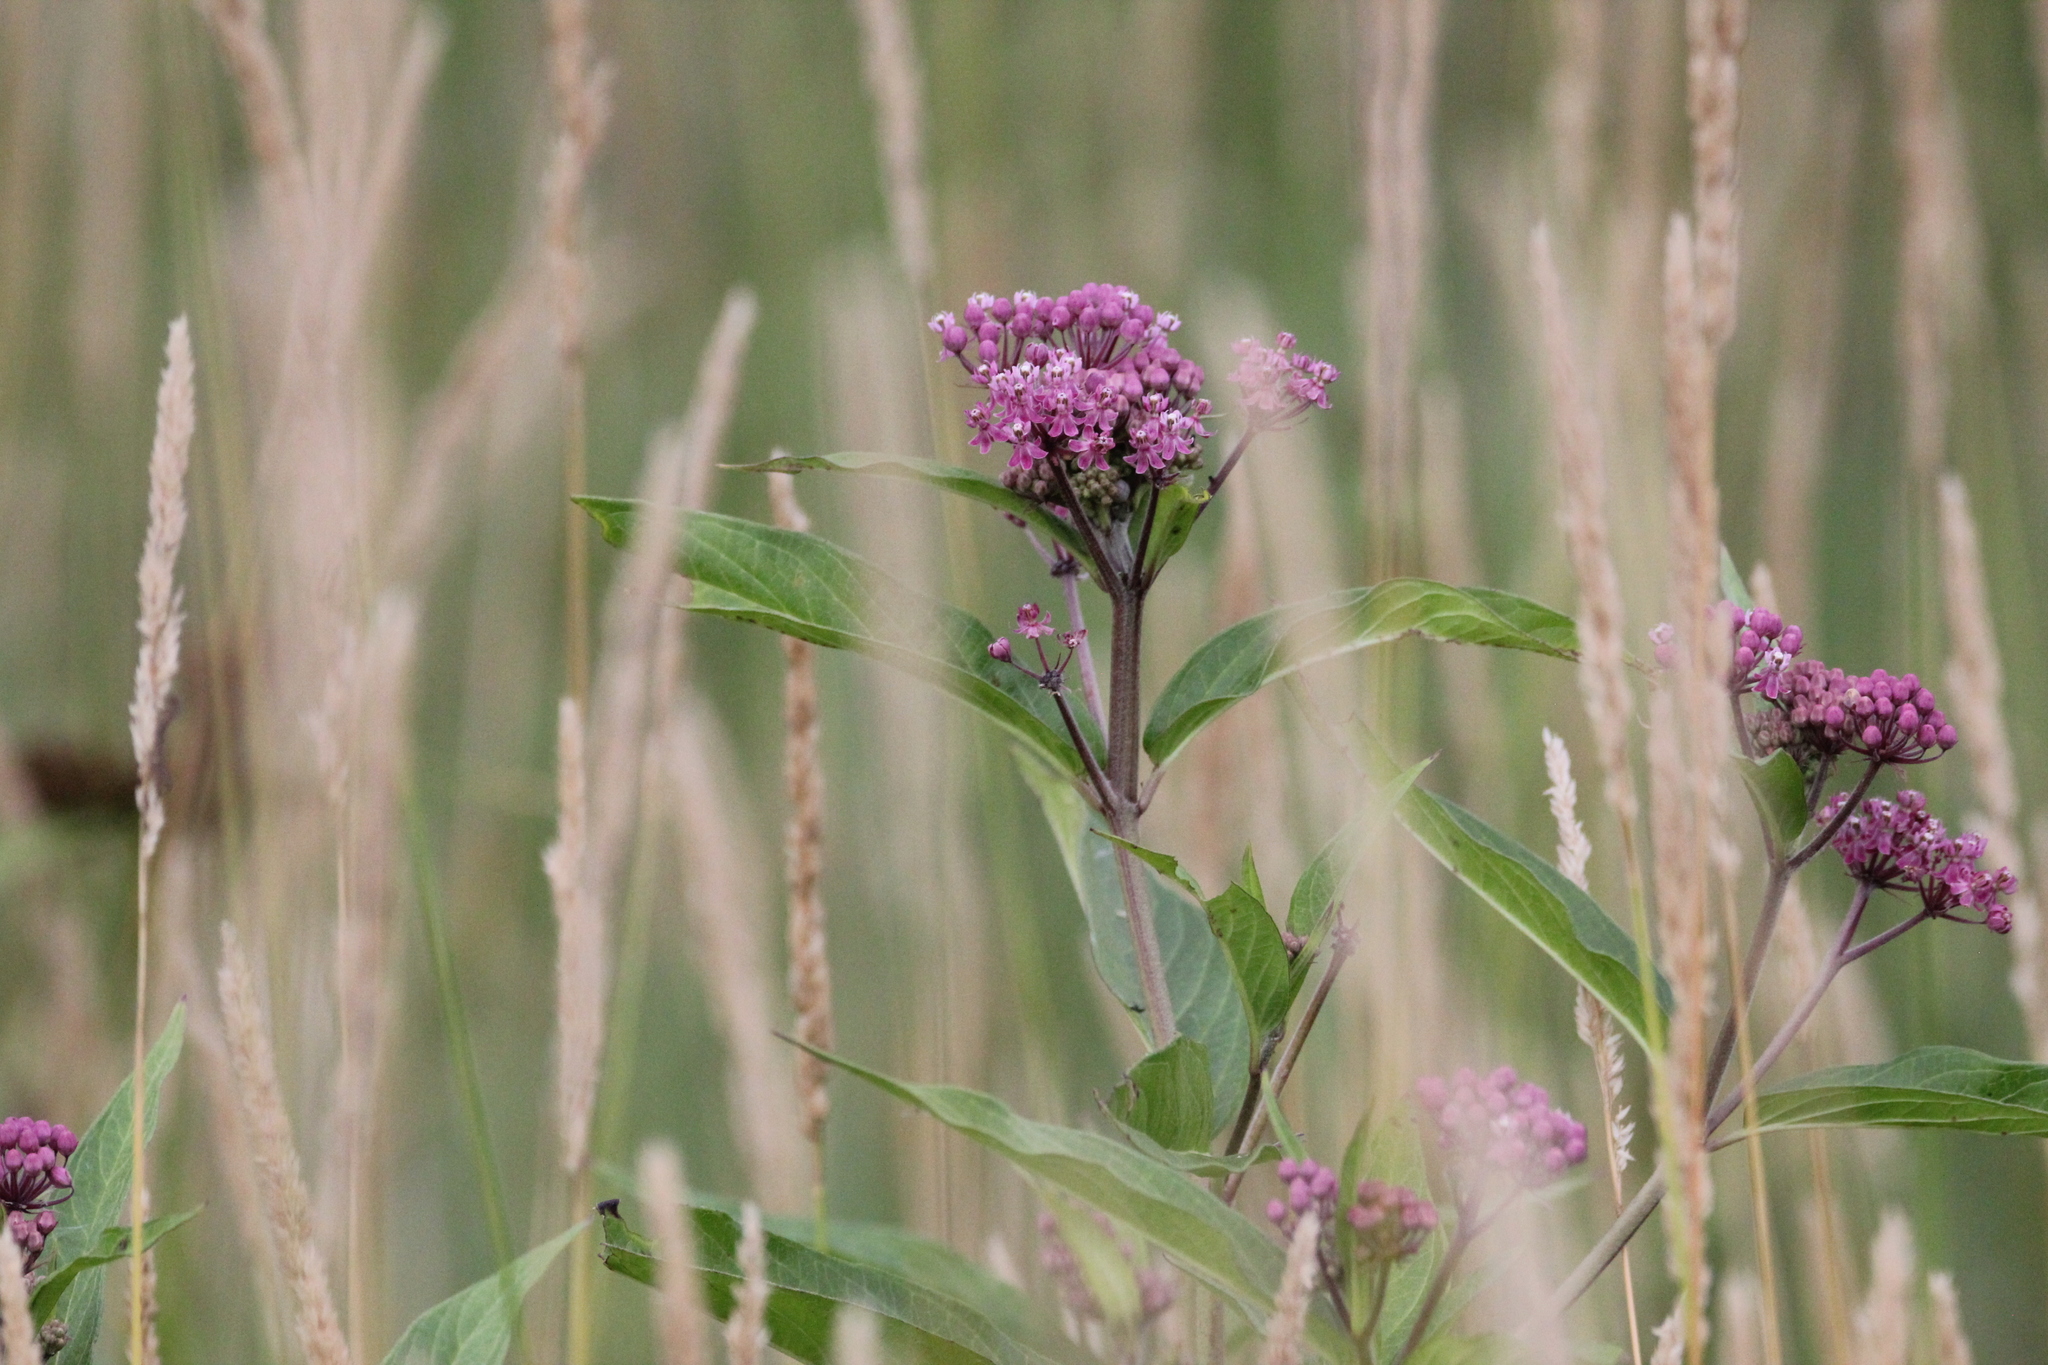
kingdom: Plantae
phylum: Tracheophyta
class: Magnoliopsida
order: Gentianales
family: Apocynaceae
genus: Asclepias
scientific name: Asclepias incarnata
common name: Swamp milkweed
